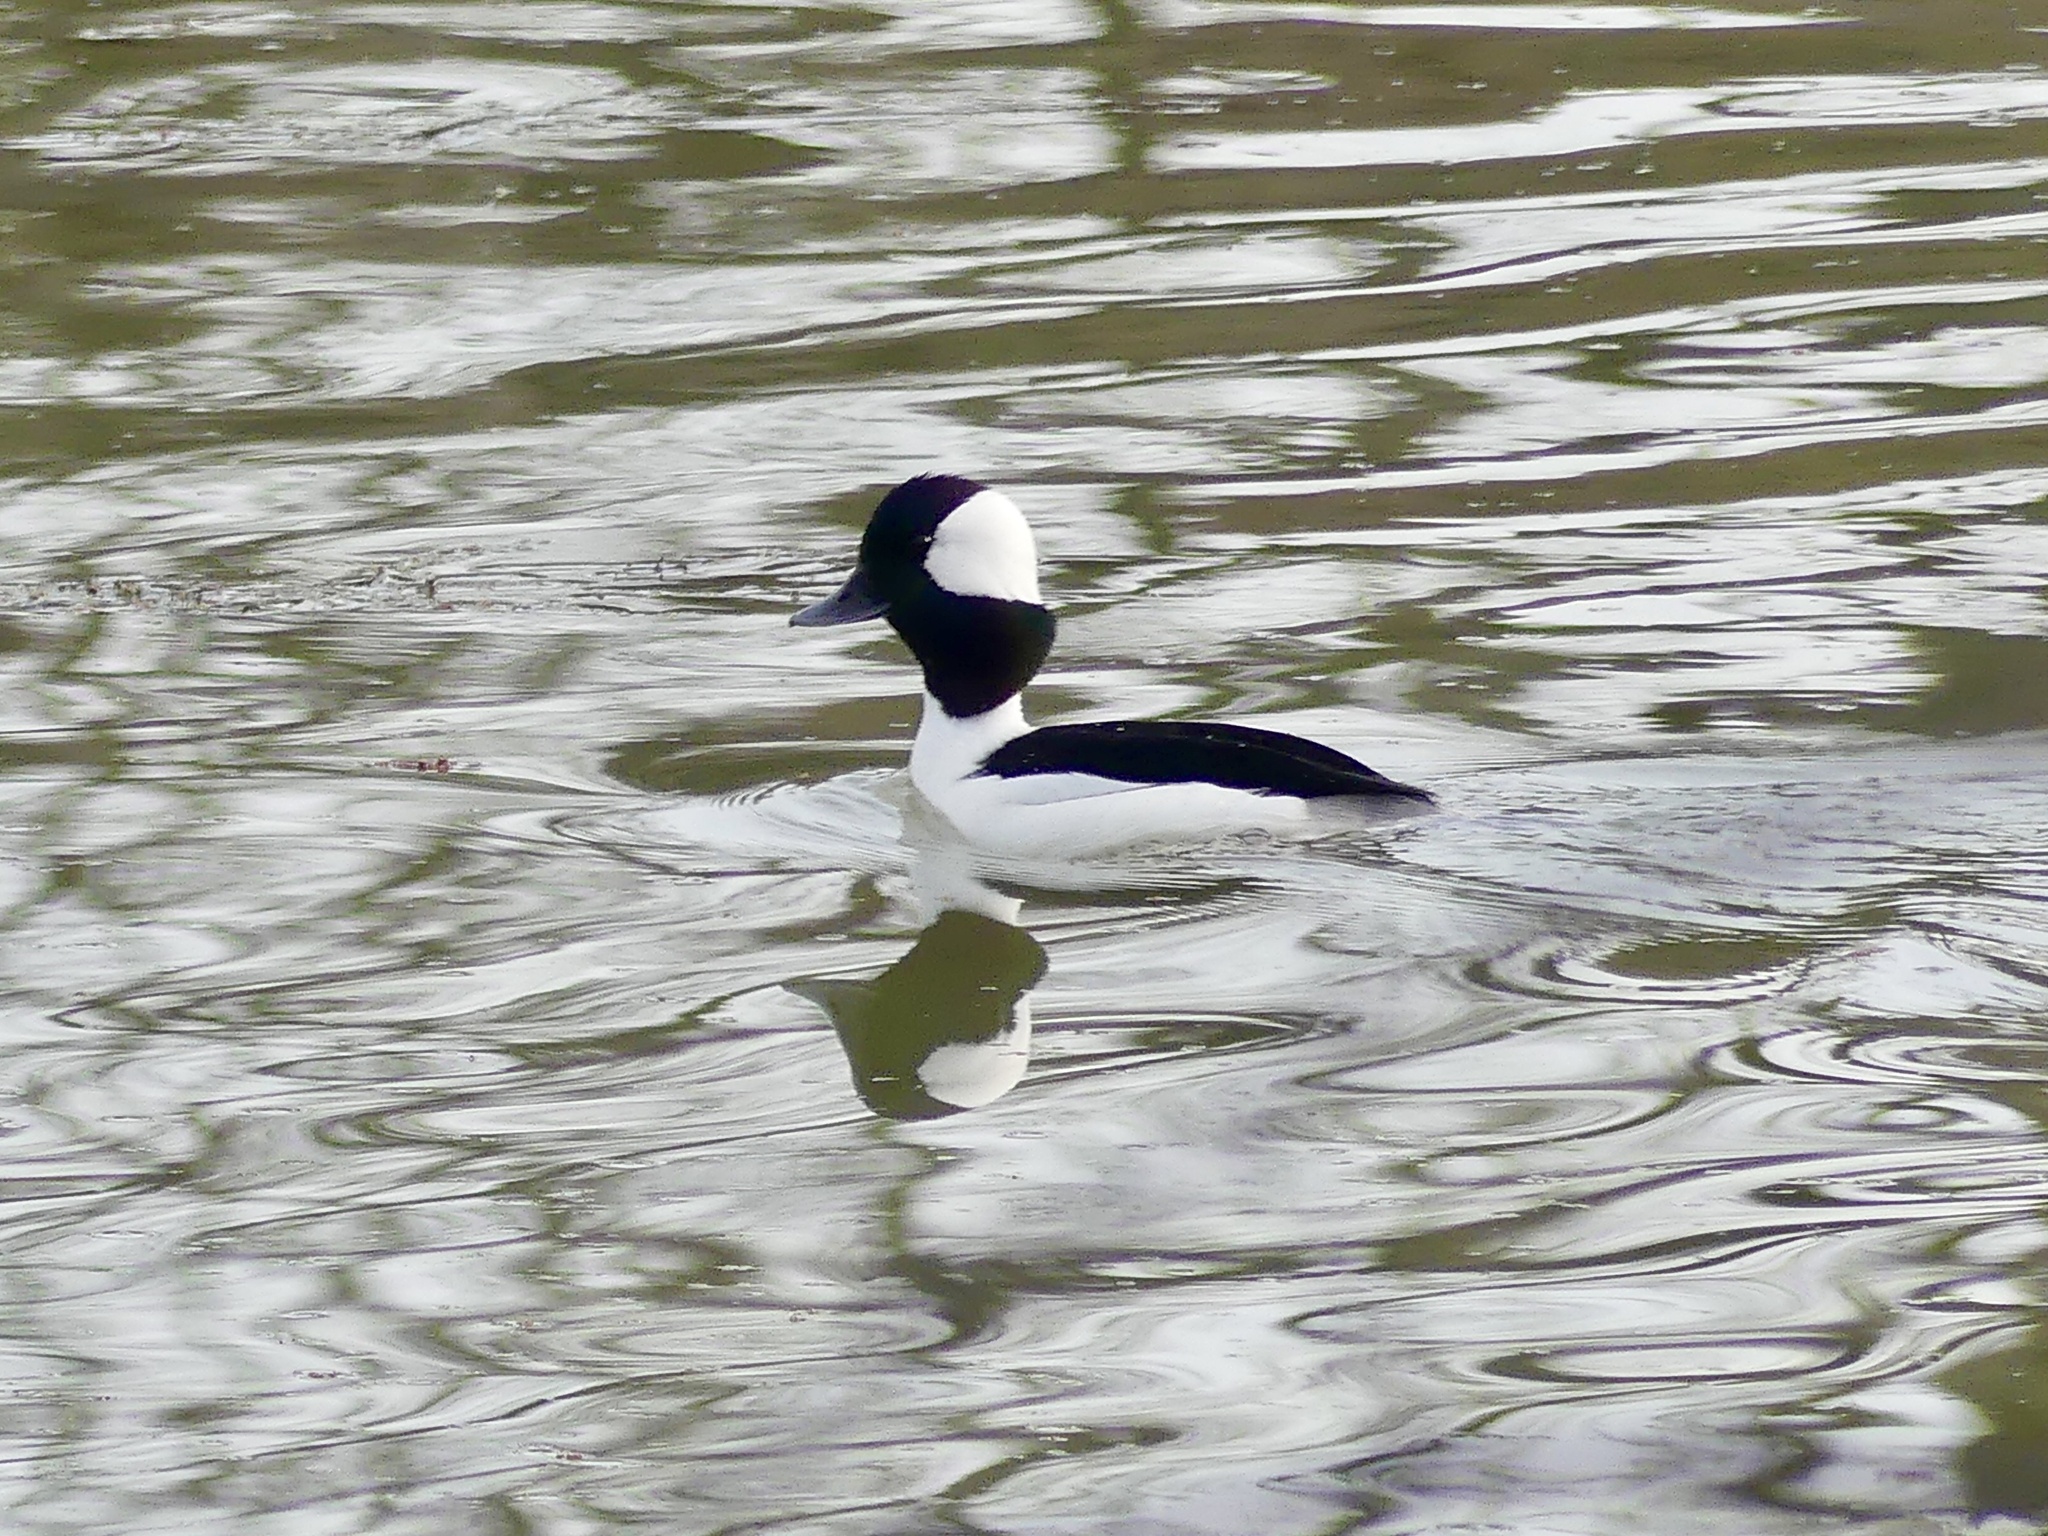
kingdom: Animalia
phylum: Chordata
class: Aves
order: Anseriformes
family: Anatidae
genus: Bucephala
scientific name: Bucephala albeola
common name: Bufflehead
